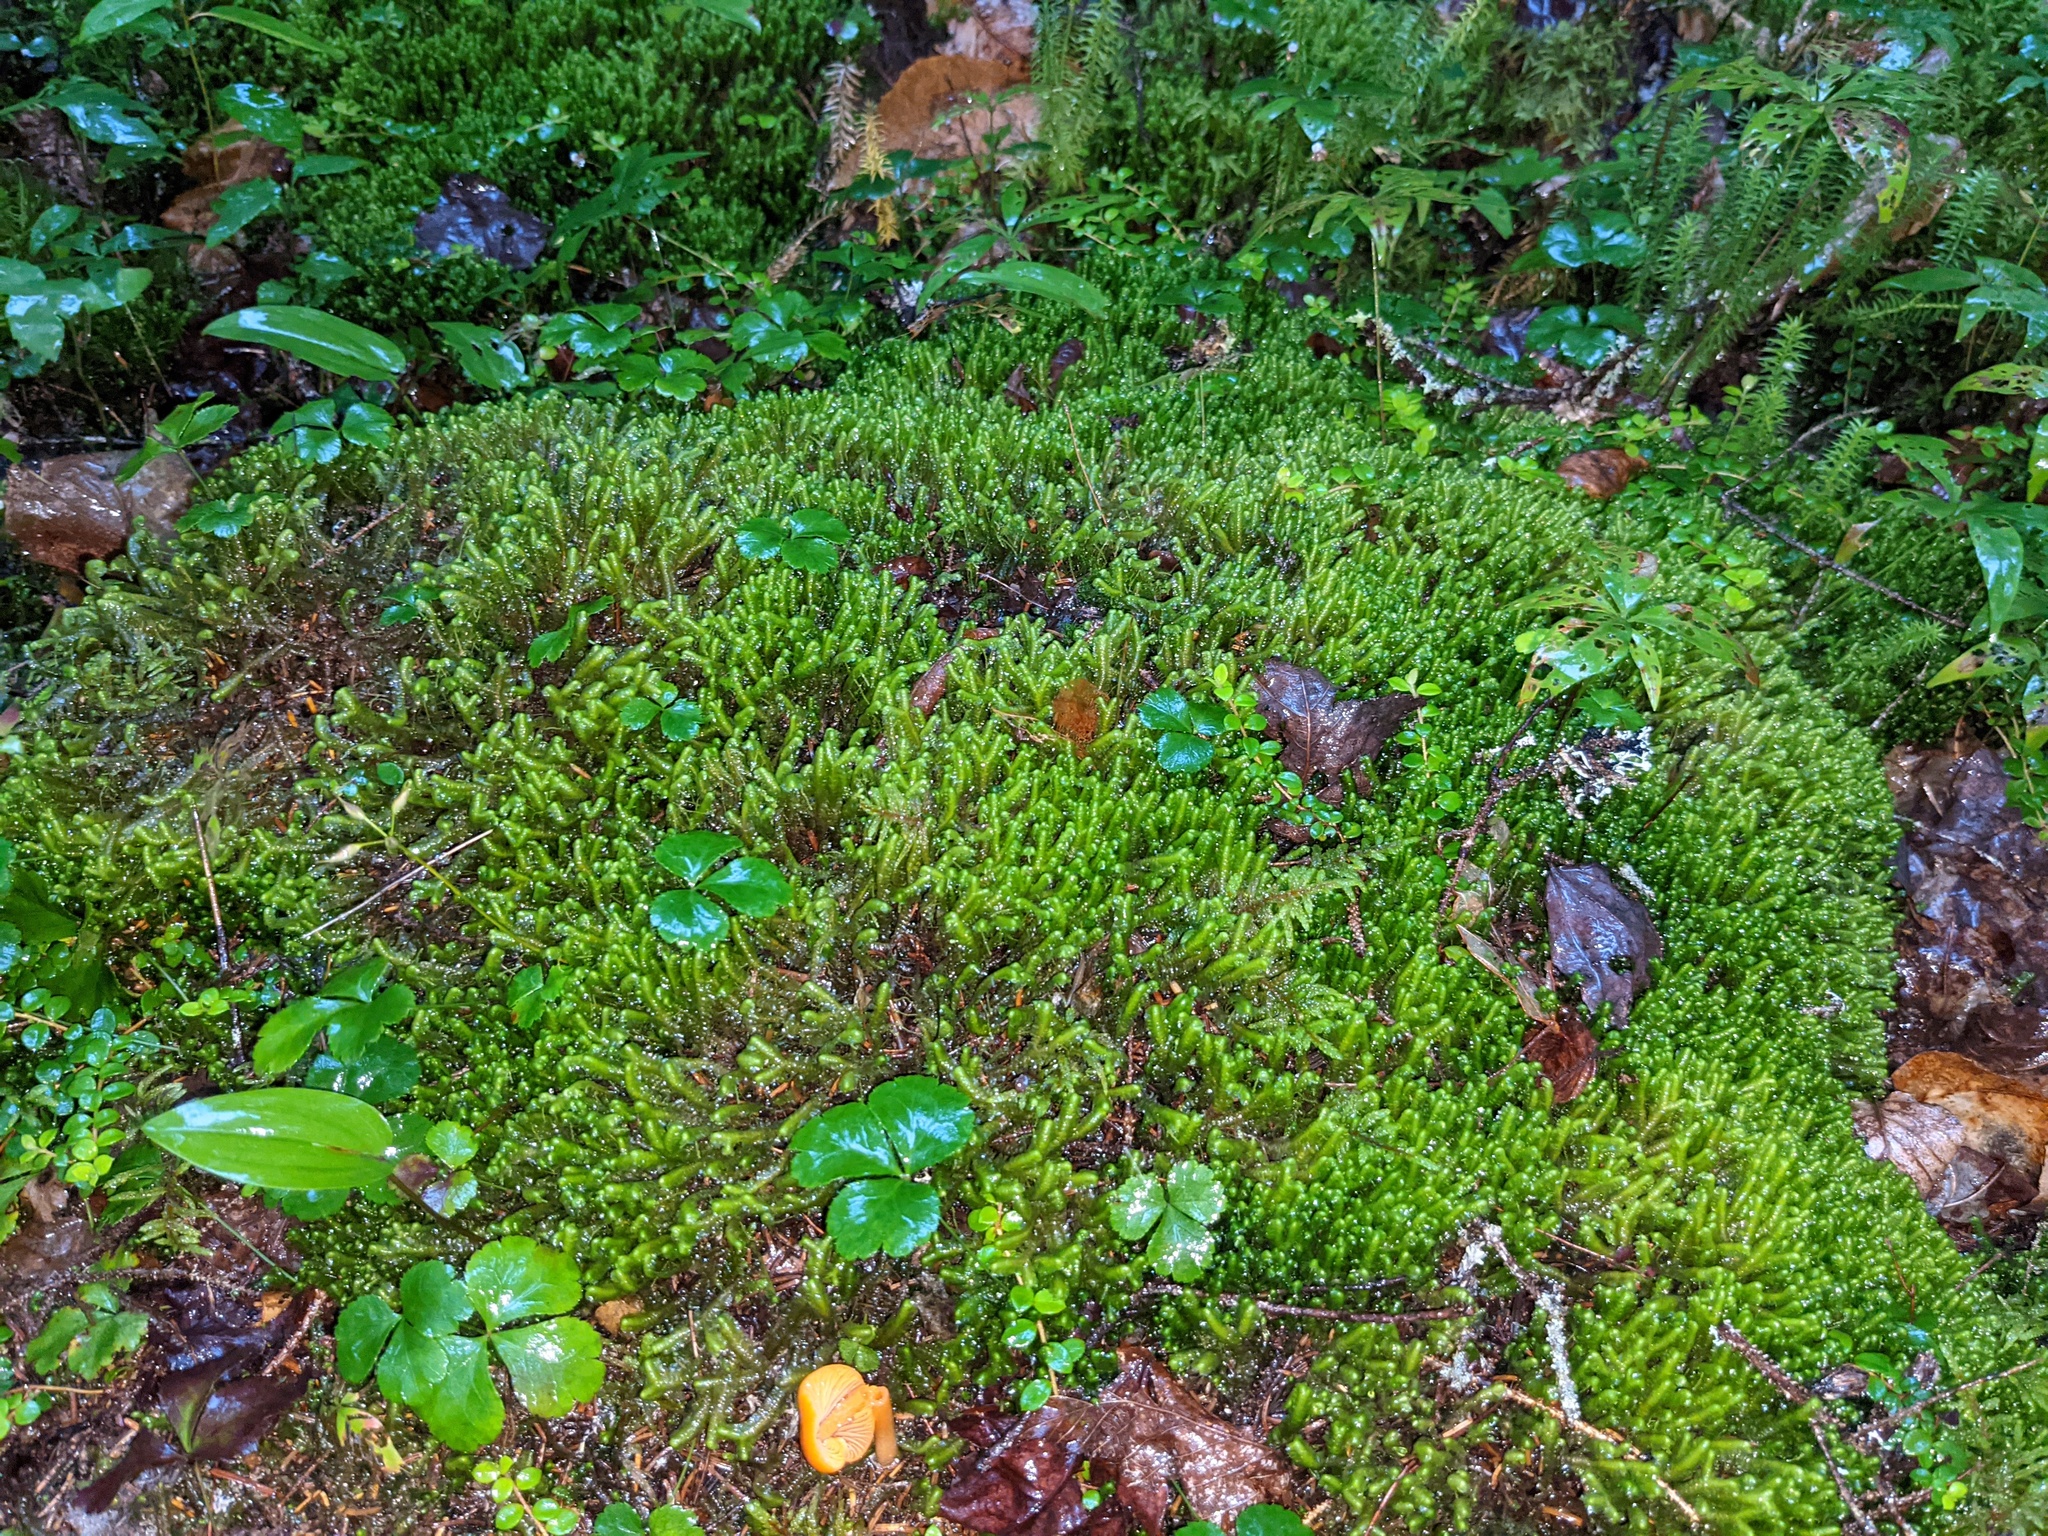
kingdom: Plantae
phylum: Tracheophyta
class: Magnoliopsida
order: Ranunculales
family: Ranunculaceae
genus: Coptis
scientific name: Coptis trifolia
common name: Canker-root
